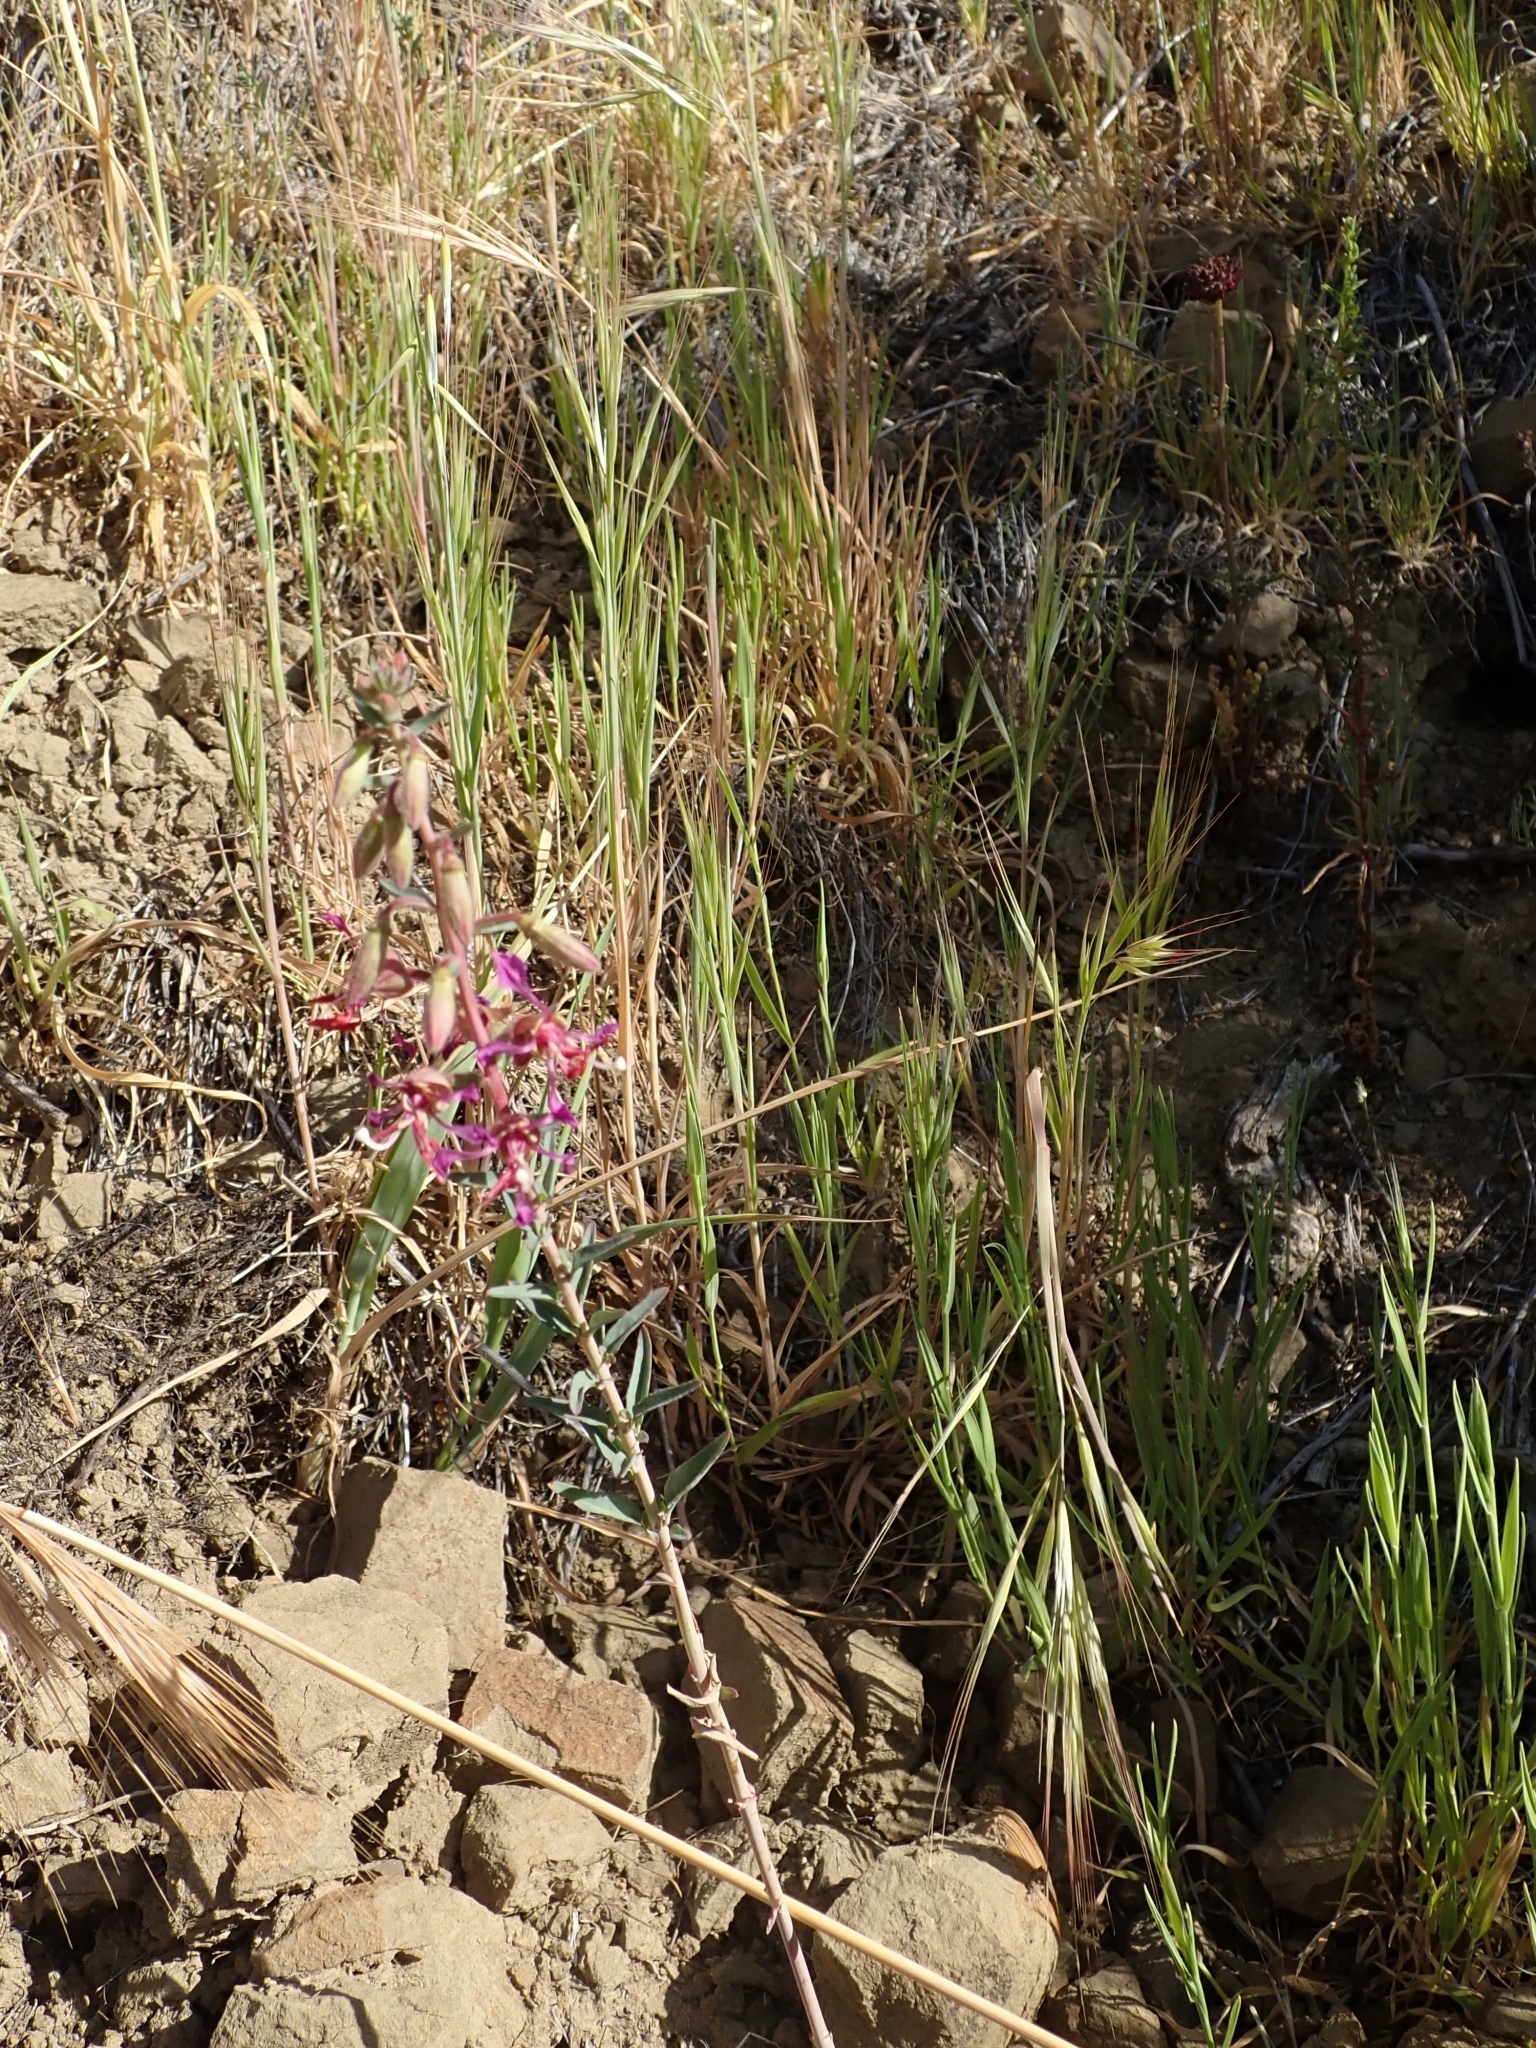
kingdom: Plantae
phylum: Tracheophyta
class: Magnoliopsida
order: Myrtales
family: Onagraceae
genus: Clarkia
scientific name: Clarkia unguiculata
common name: Clarkia
